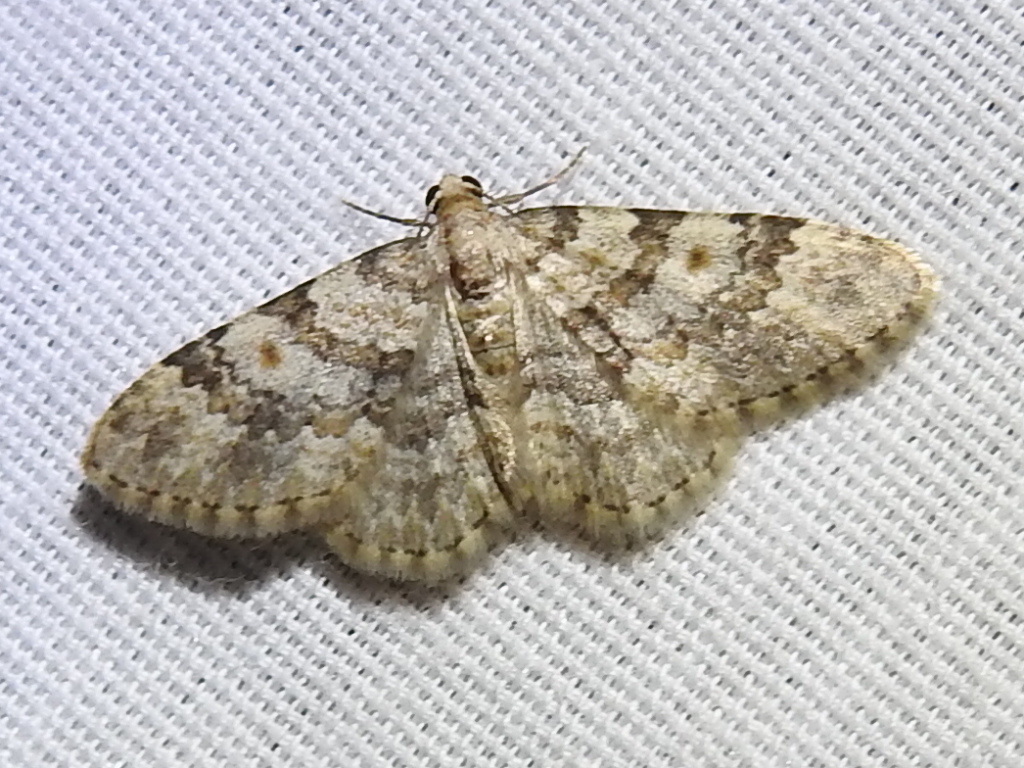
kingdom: Animalia
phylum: Arthropoda
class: Insecta
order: Lepidoptera
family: Geometridae
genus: Zenophleps
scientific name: Zenophleps obscurata
